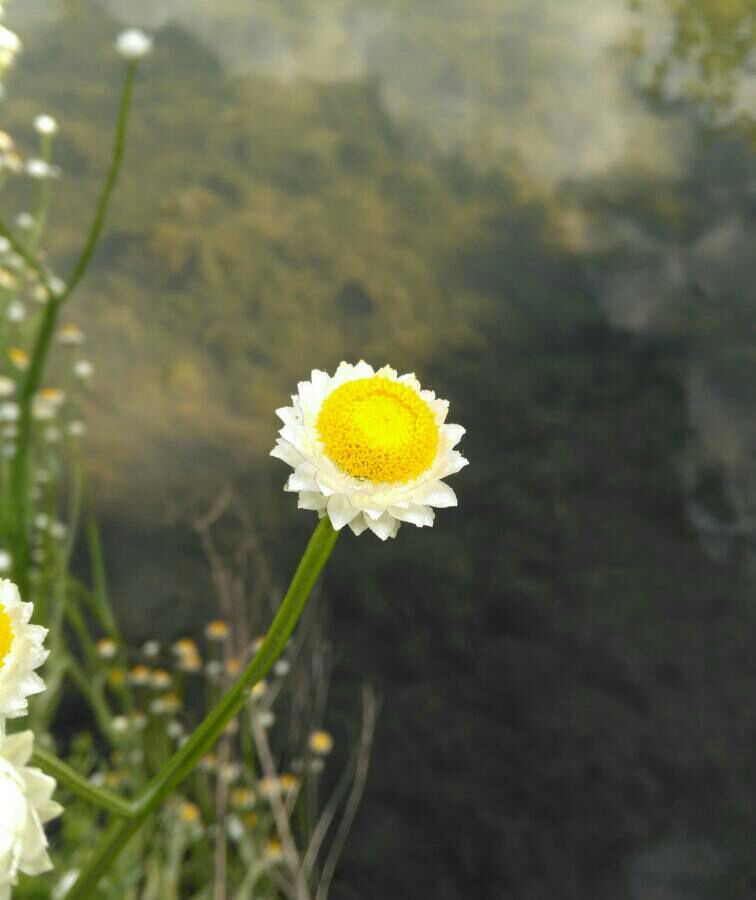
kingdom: Plantae
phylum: Tracheophyta
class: Magnoliopsida
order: Asterales
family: Asteraceae
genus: Ammobium
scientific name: Ammobium alatum
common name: Winged everlasting
